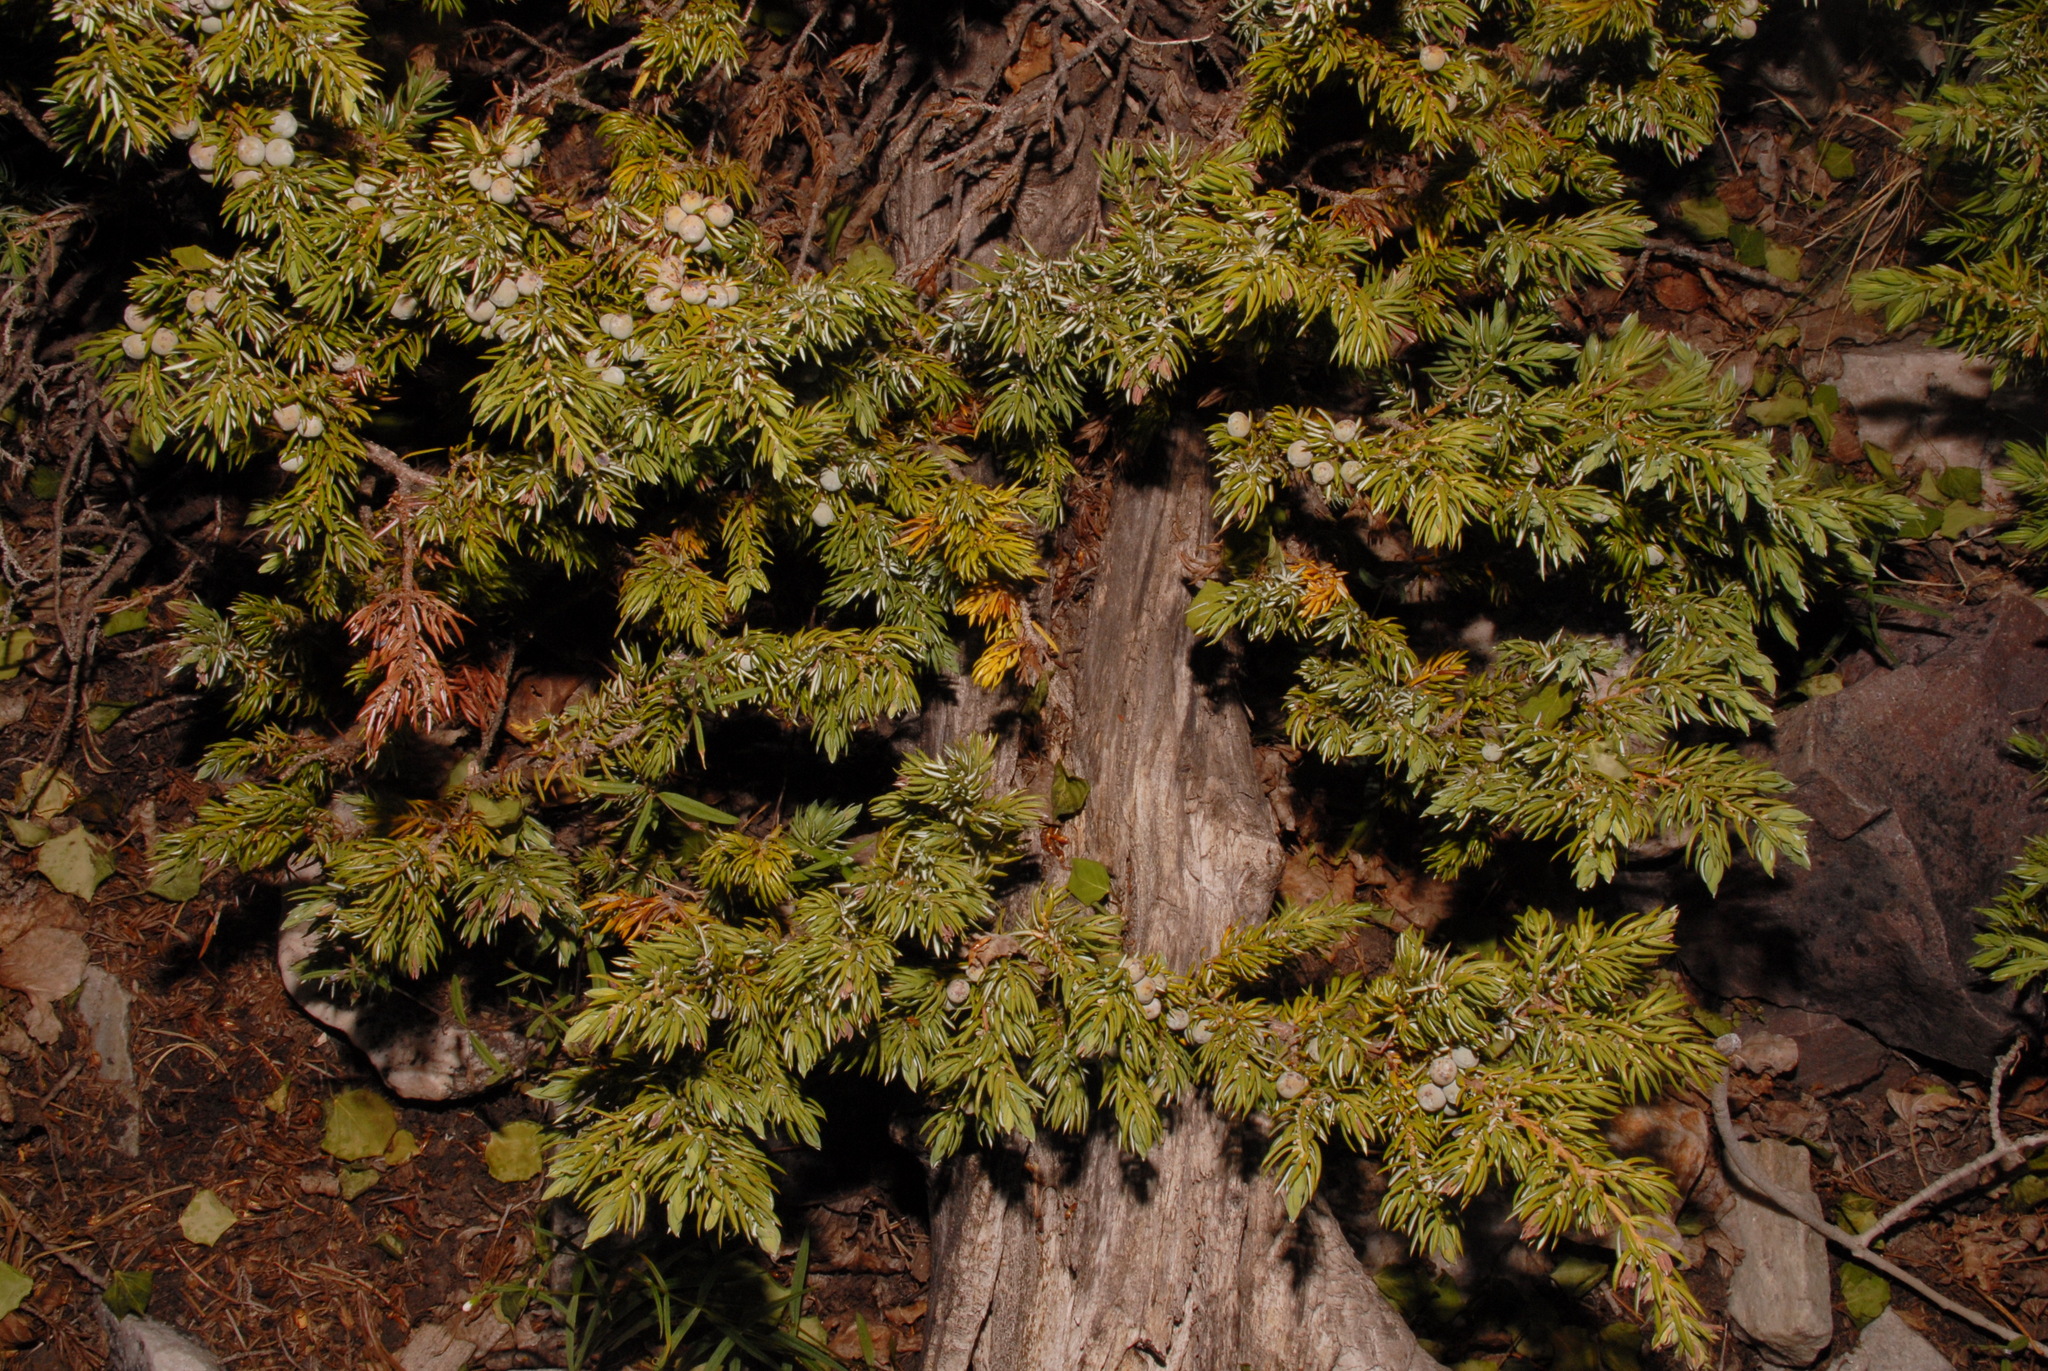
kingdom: Plantae
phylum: Tracheophyta
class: Pinopsida
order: Pinales
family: Cupressaceae
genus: Juniperus
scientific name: Juniperus communis
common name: Common juniper
